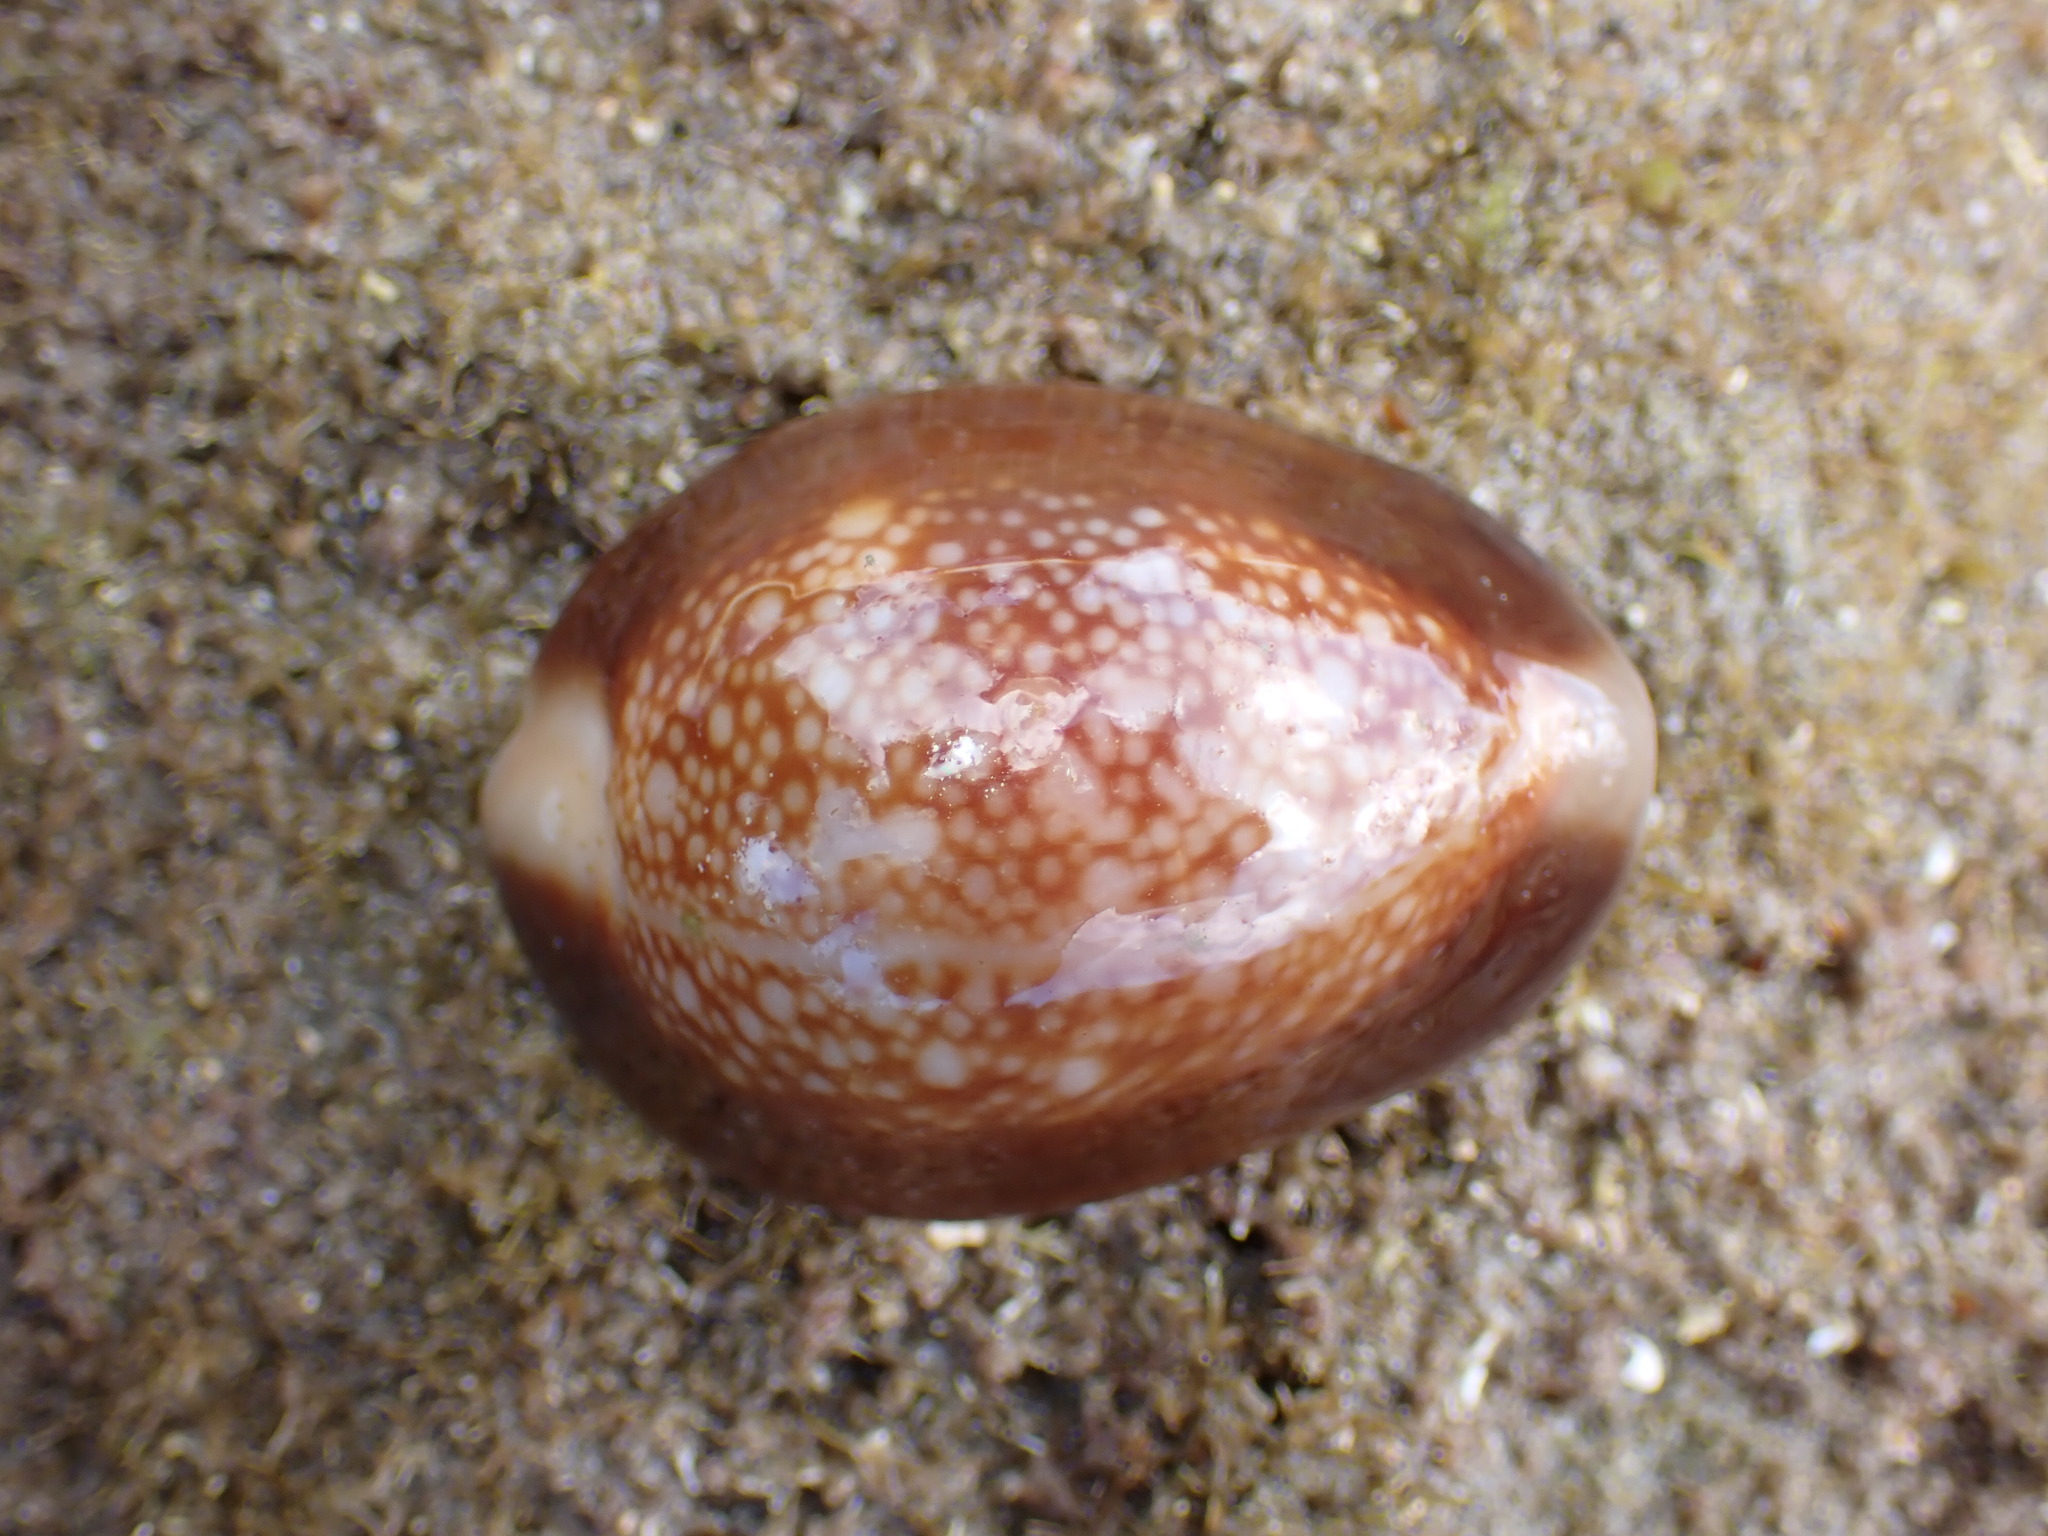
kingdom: Animalia
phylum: Mollusca
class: Gastropoda
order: Littorinimorpha
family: Cypraeidae
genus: Monetaria
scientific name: Monetaria caputserpentis
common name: Serpent's head cowrie
